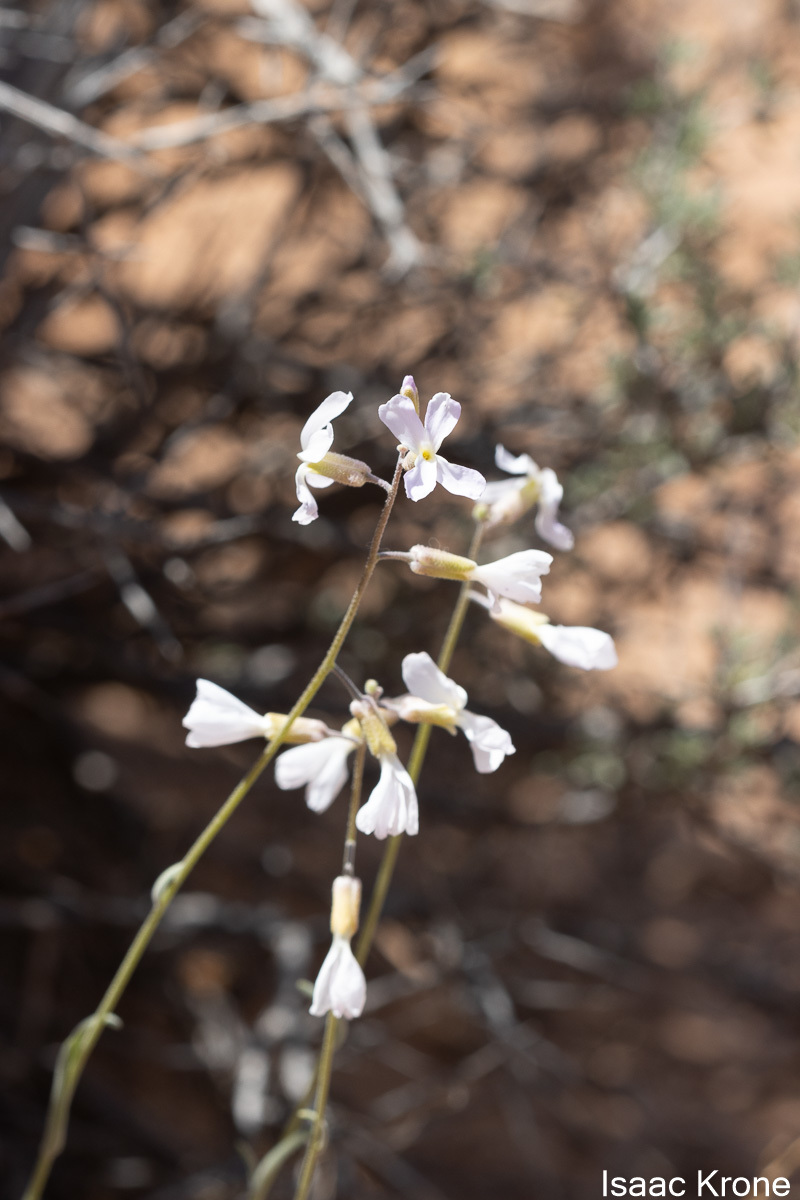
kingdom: Plantae
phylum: Tracheophyta
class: Magnoliopsida
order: Brassicales
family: Brassicaceae
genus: Boechera
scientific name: Boechera formosa
